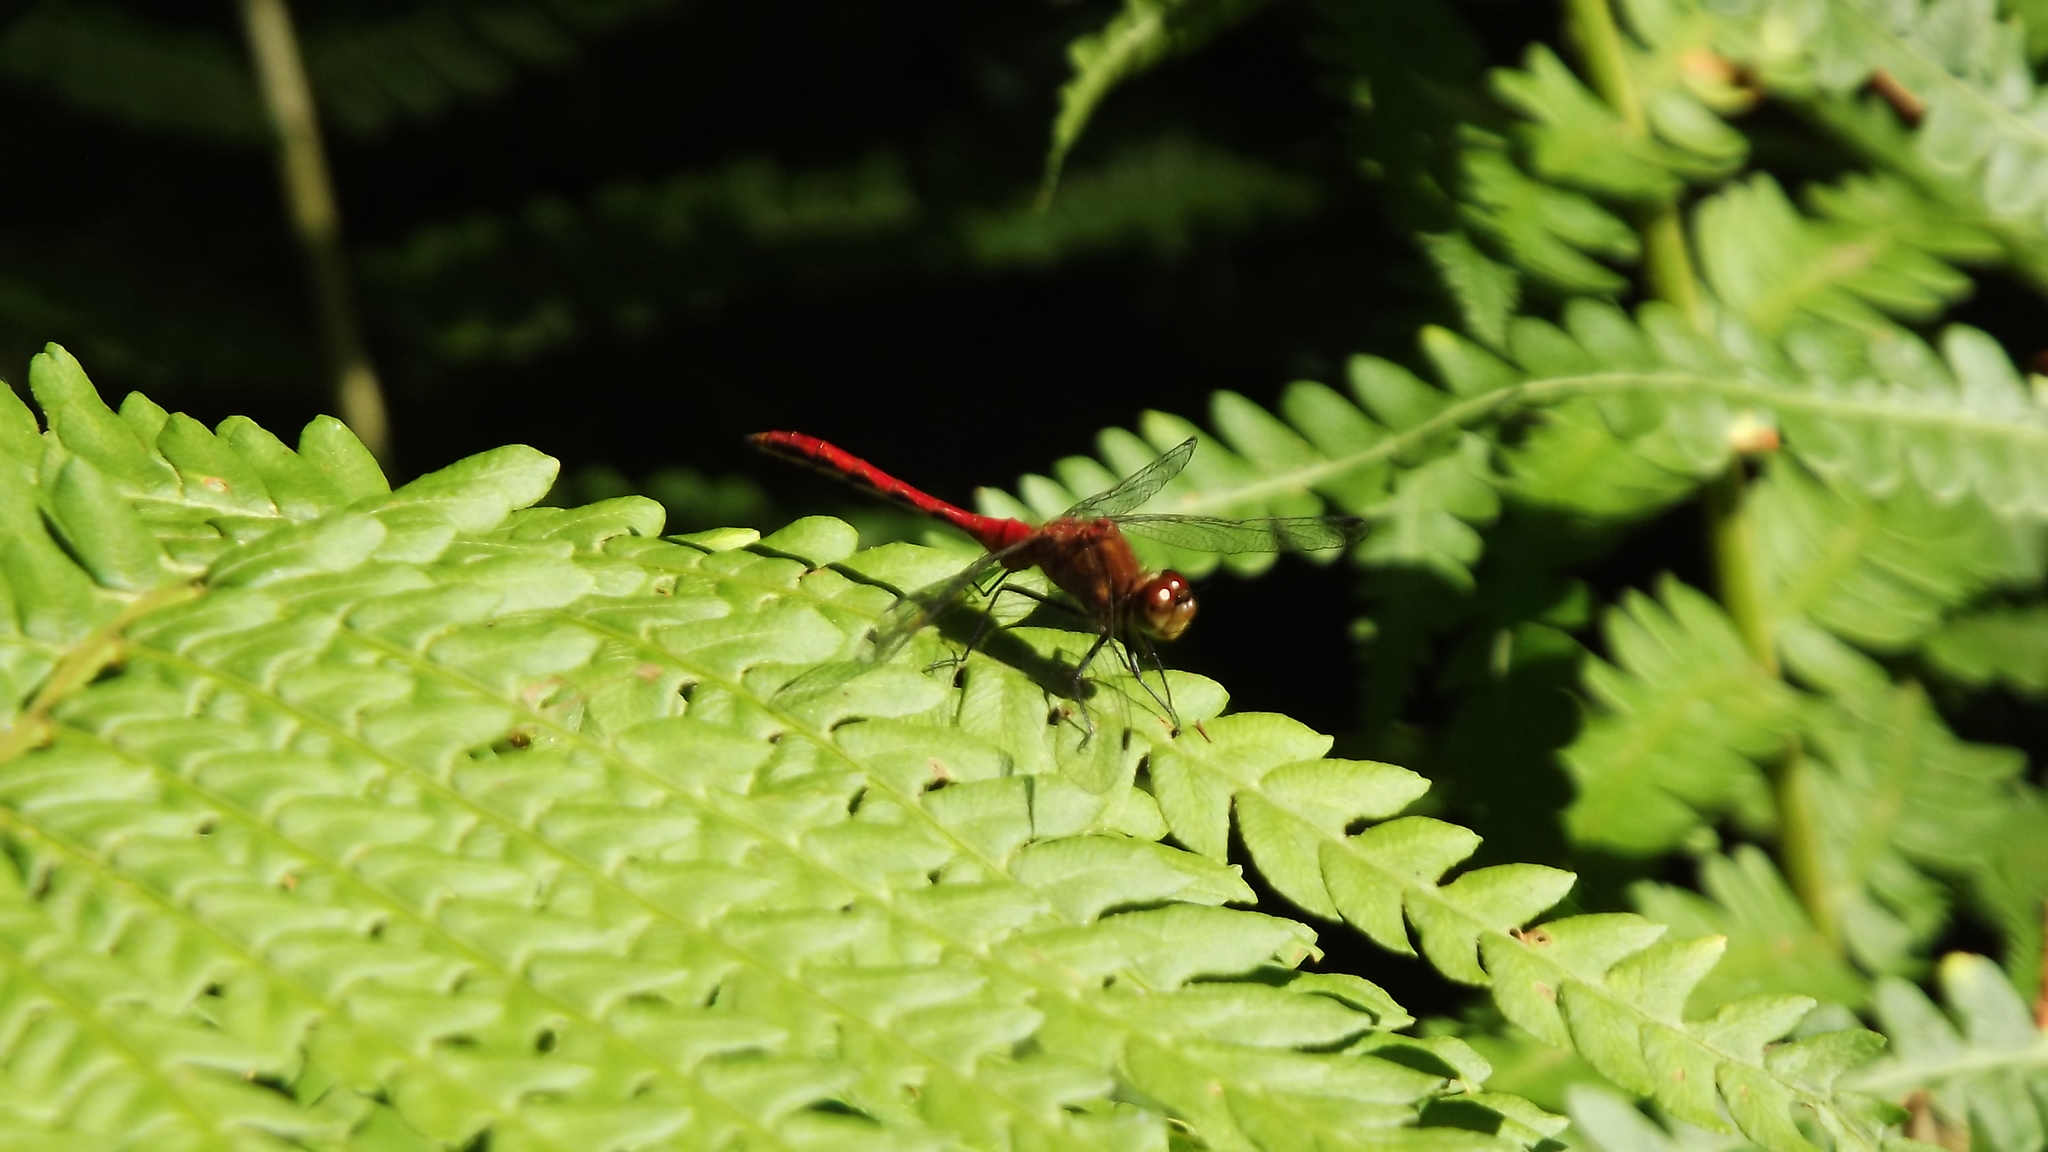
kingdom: Animalia
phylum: Arthropoda
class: Insecta
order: Odonata
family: Libellulidae
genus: Sympetrum
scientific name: Sympetrum
